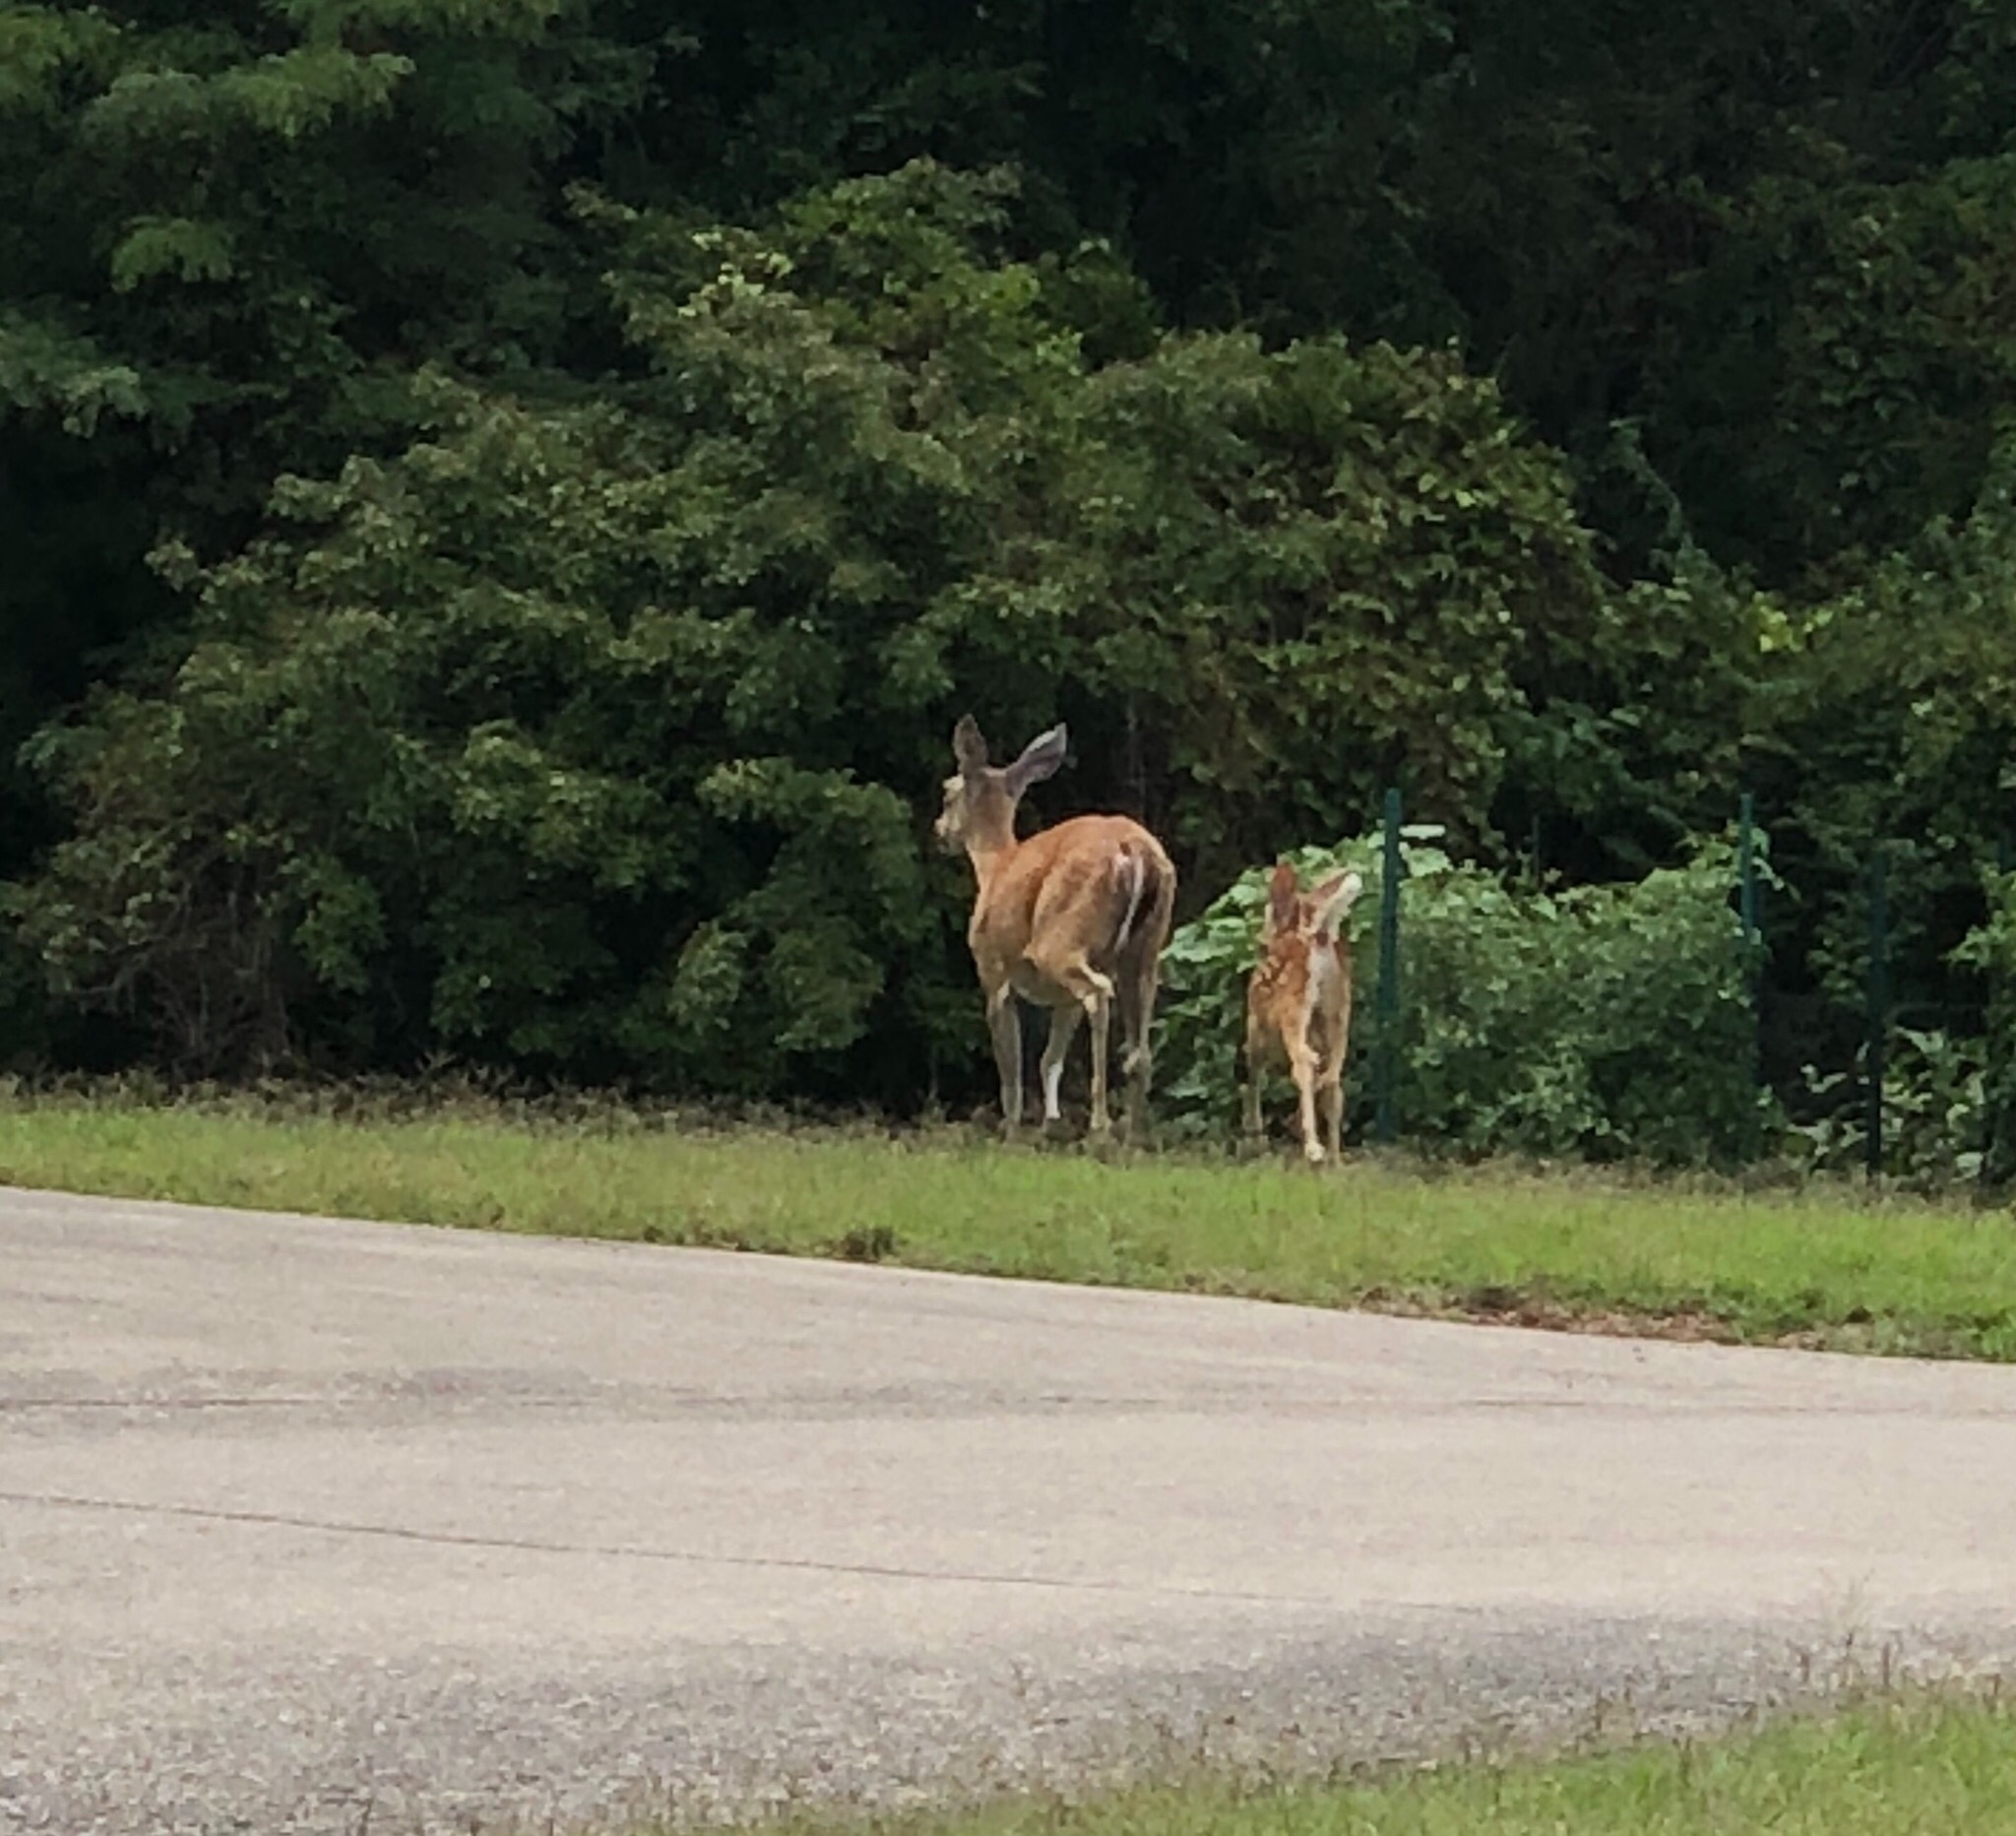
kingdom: Animalia
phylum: Chordata
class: Mammalia
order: Artiodactyla
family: Cervidae
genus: Odocoileus
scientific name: Odocoileus virginianus
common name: White-tailed deer
